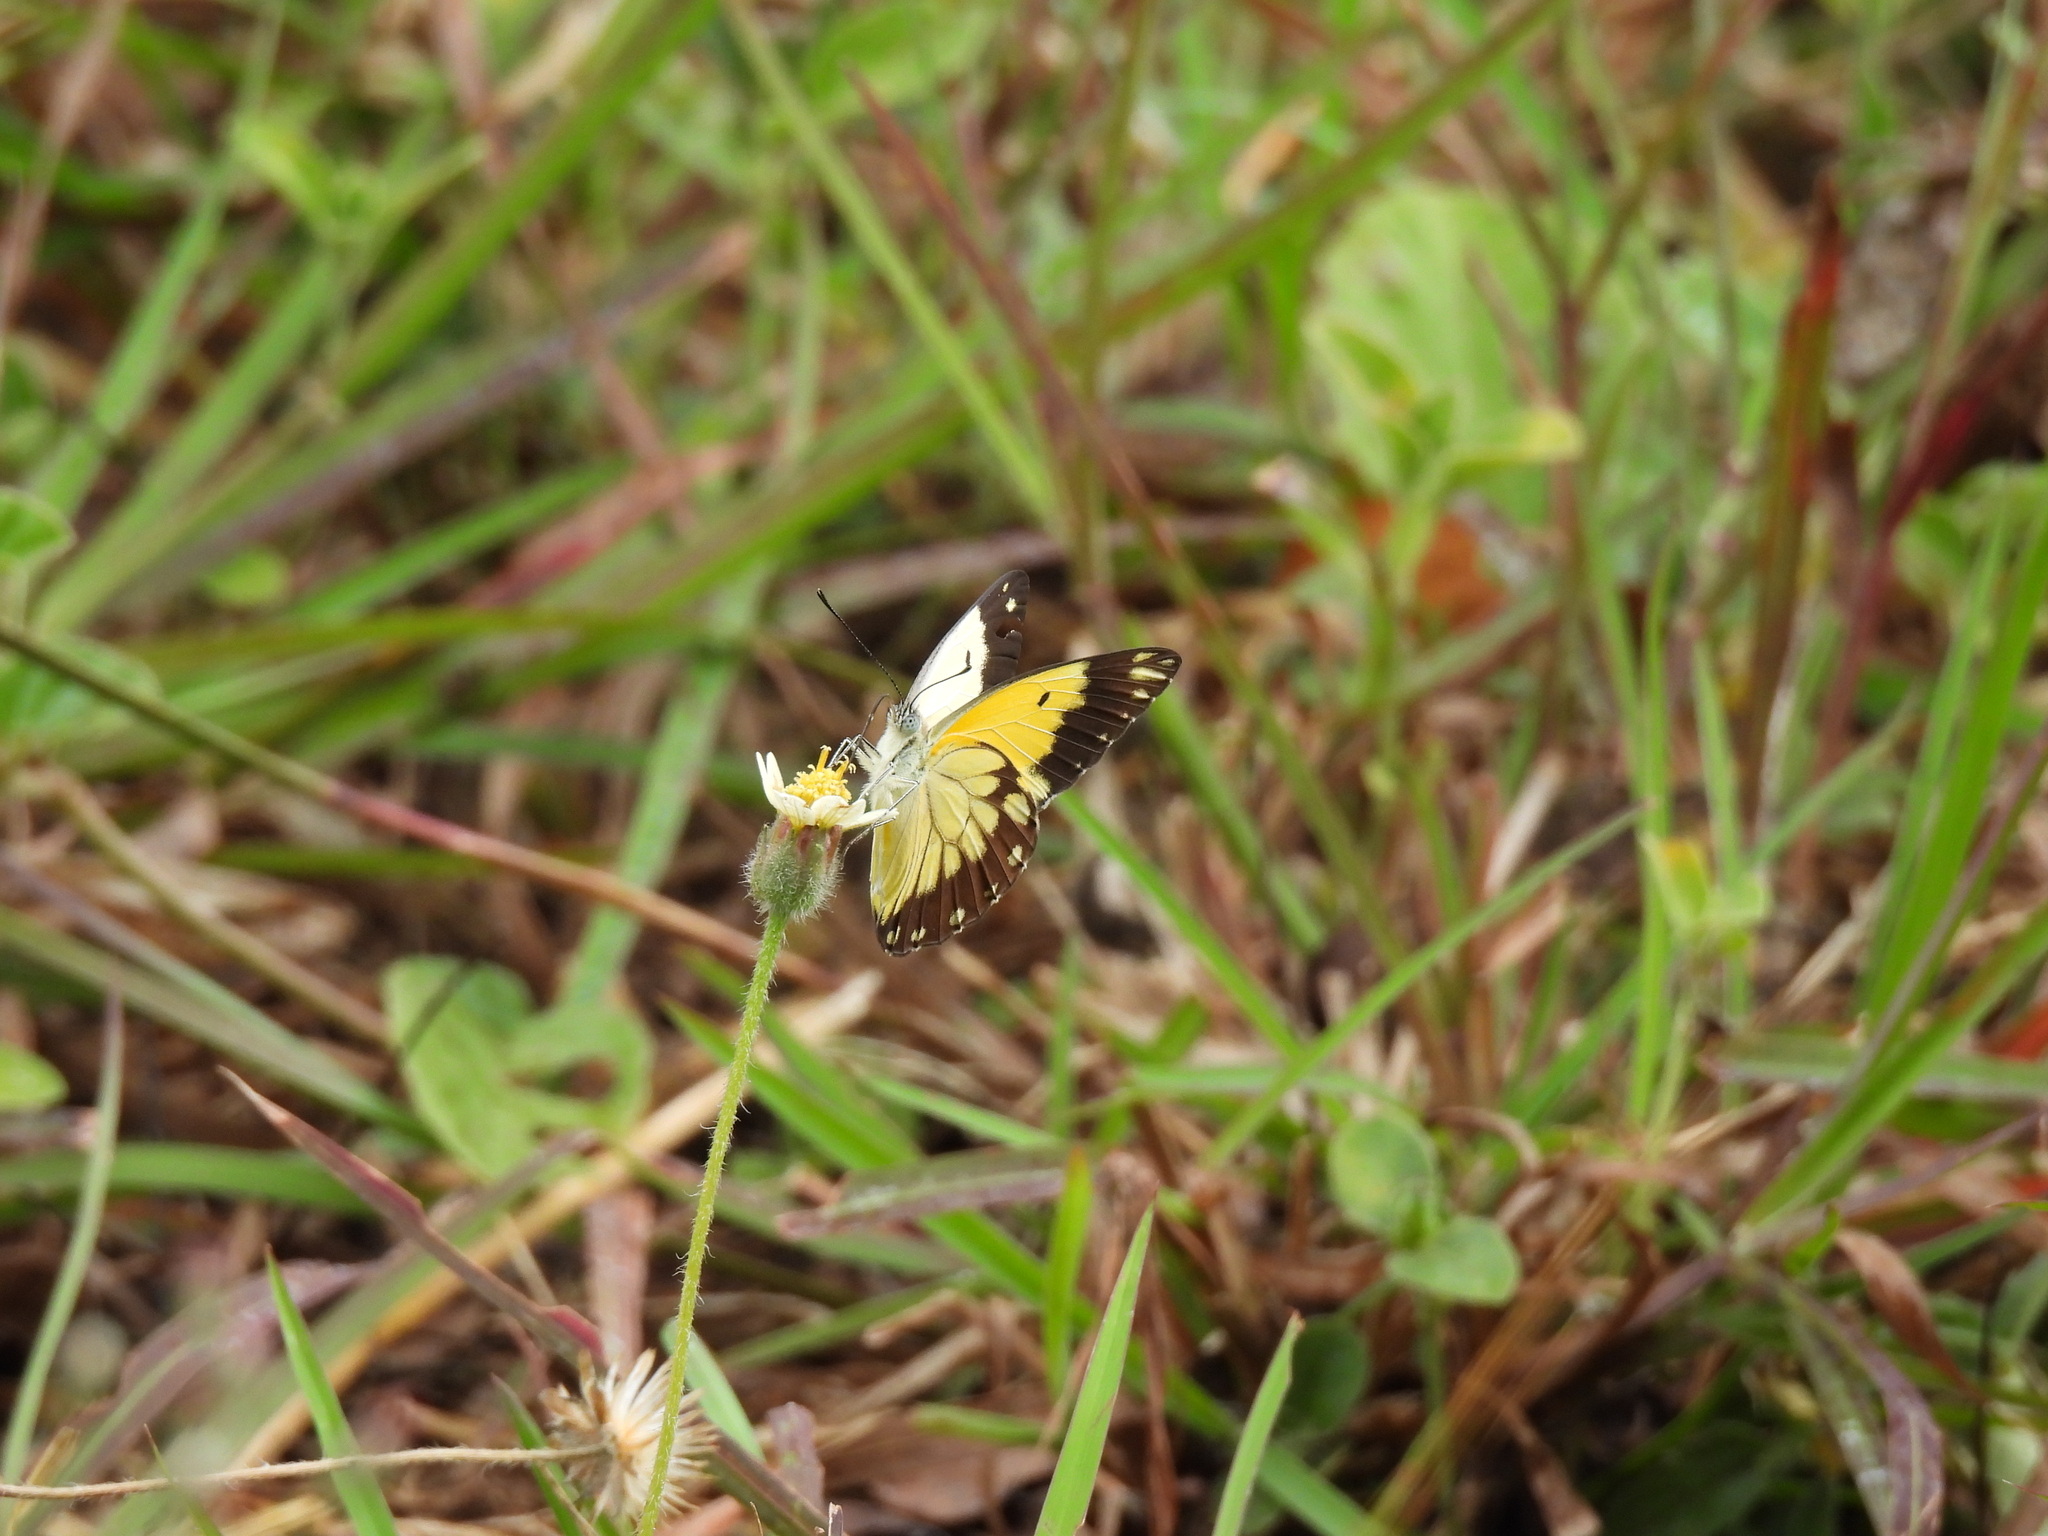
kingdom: Animalia
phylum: Arthropoda
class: Insecta
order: Lepidoptera
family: Pieridae
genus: Belenois
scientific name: Belenois creona
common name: African caper white
